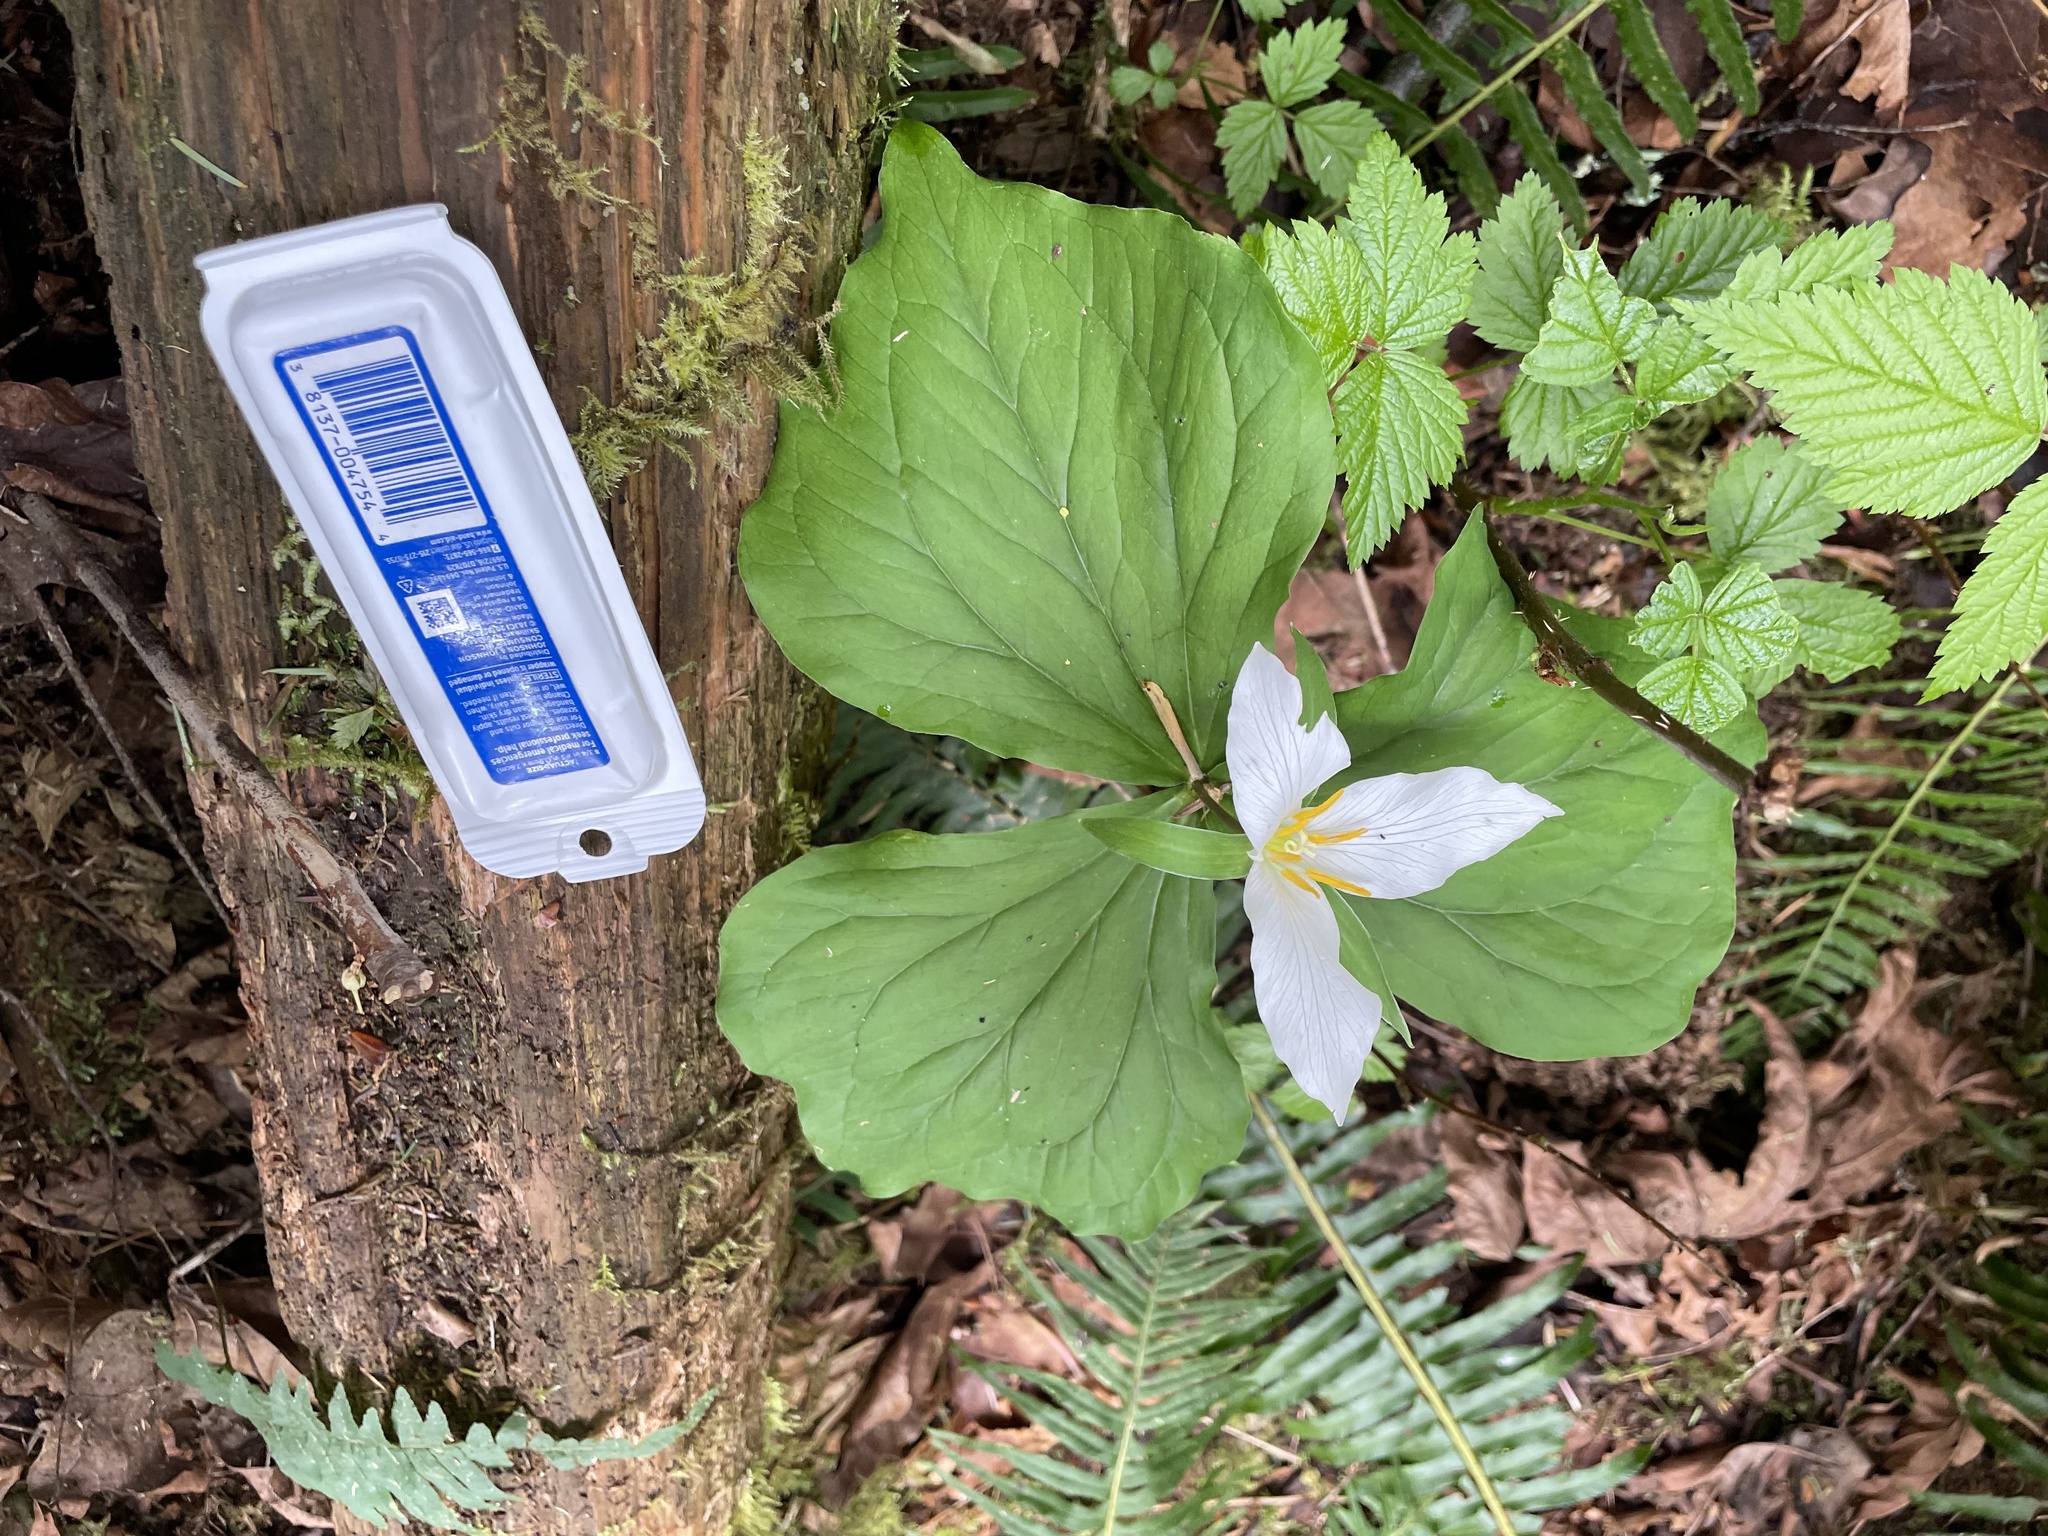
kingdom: Plantae
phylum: Tracheophyta
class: Liliopsida
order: Liliales
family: Melanthiaceae
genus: Trillium
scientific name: Trillium ovatum
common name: Pacific trillium
